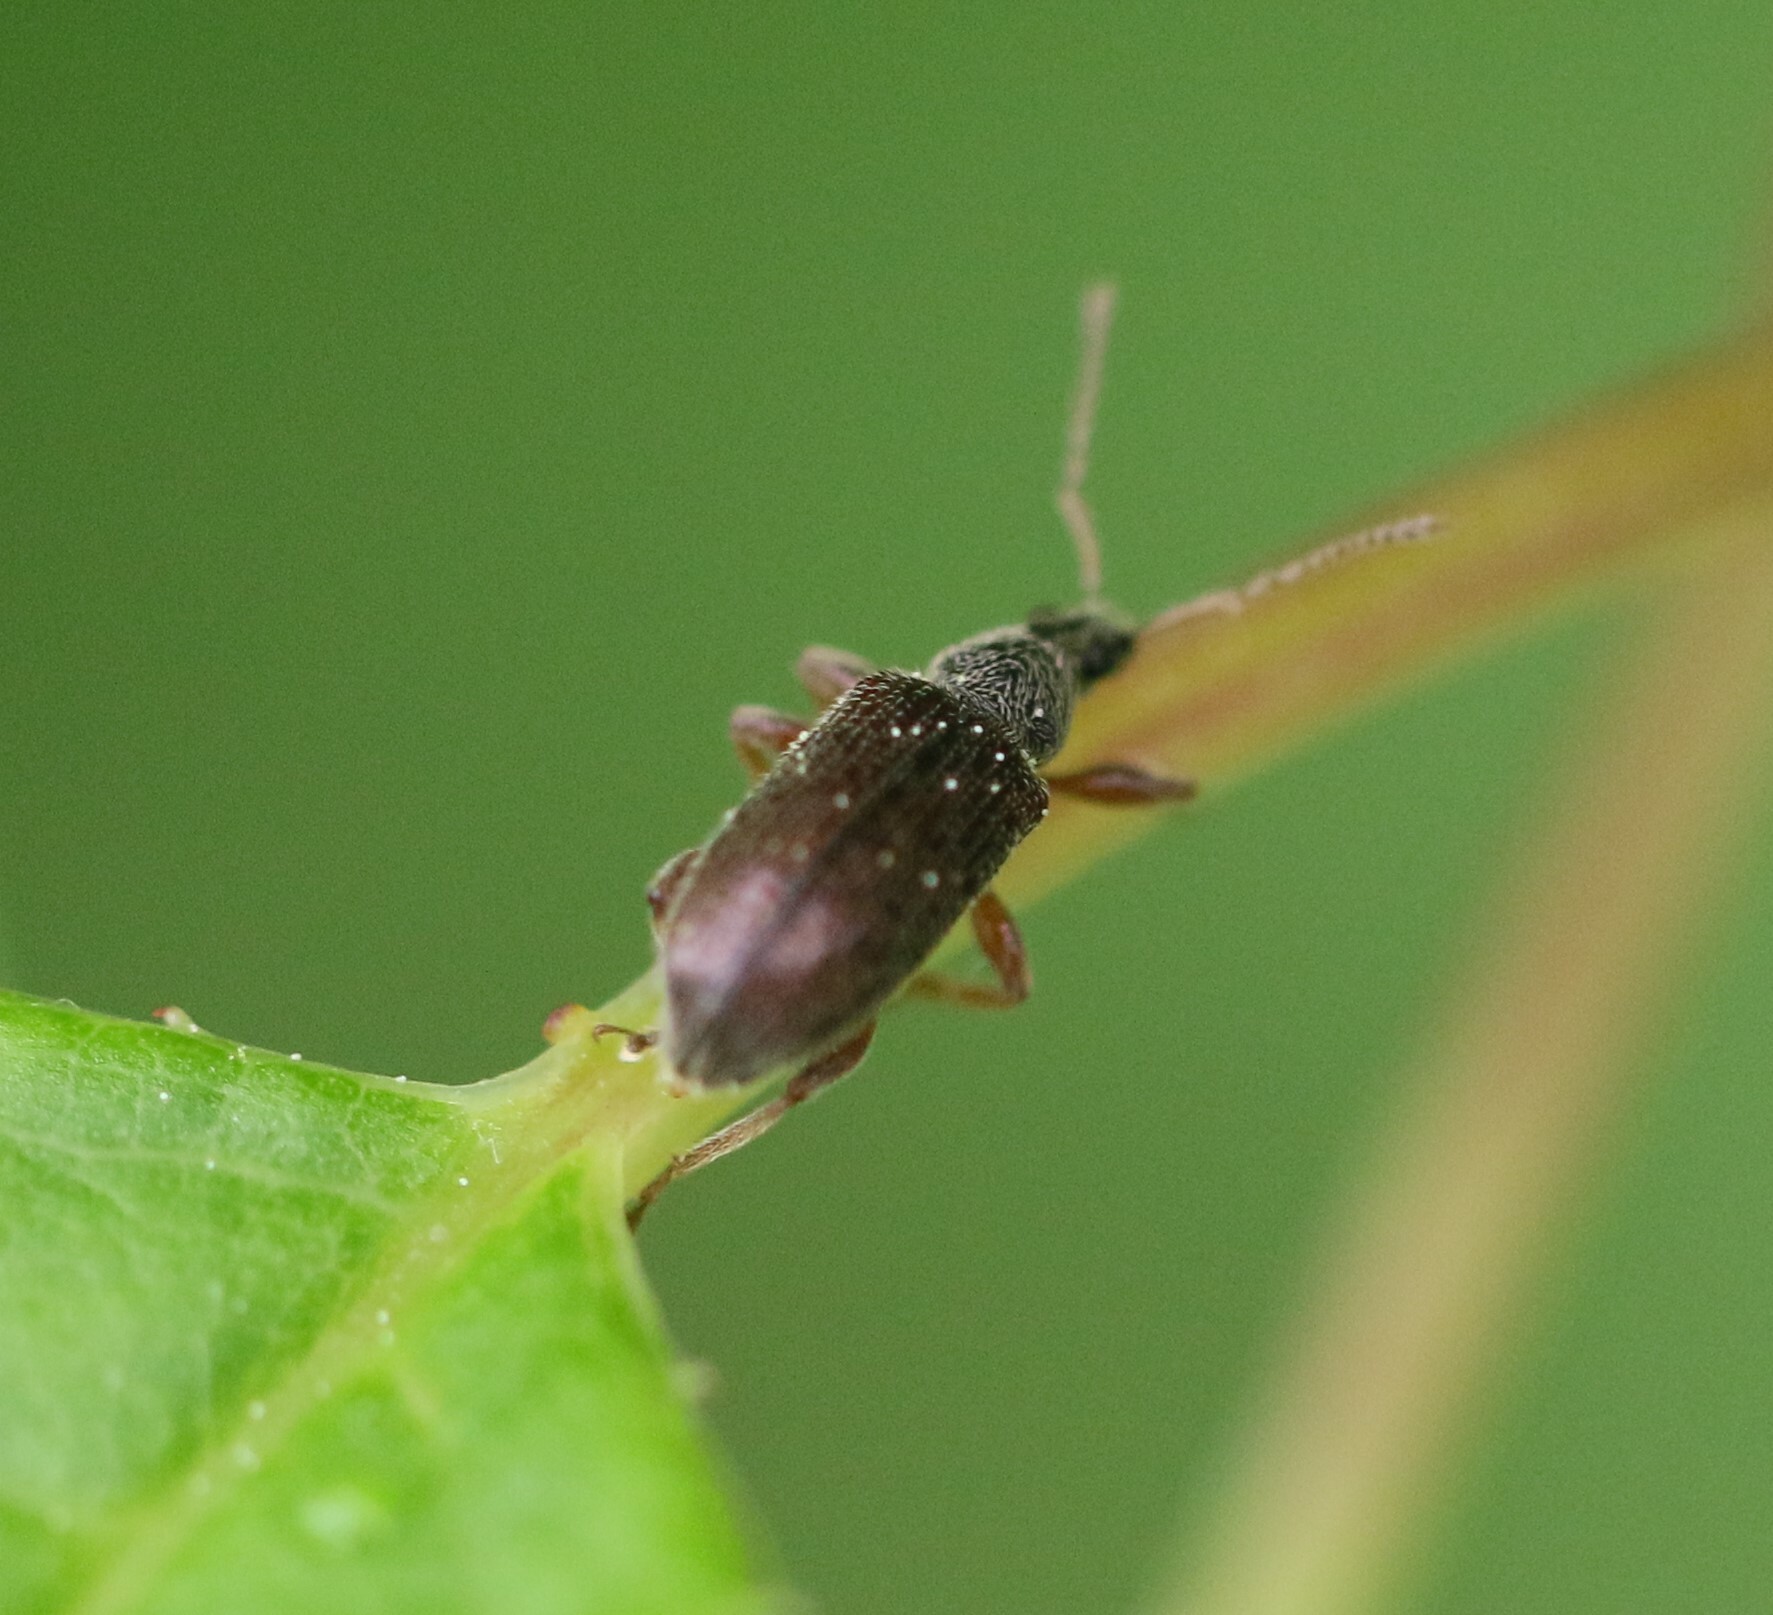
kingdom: Animalia
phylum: Arthropoda
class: Insecta
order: Coleoptera
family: Curculionidae
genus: Phyllobius
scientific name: Phyllobius oblongus
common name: Brown leaf weevil
